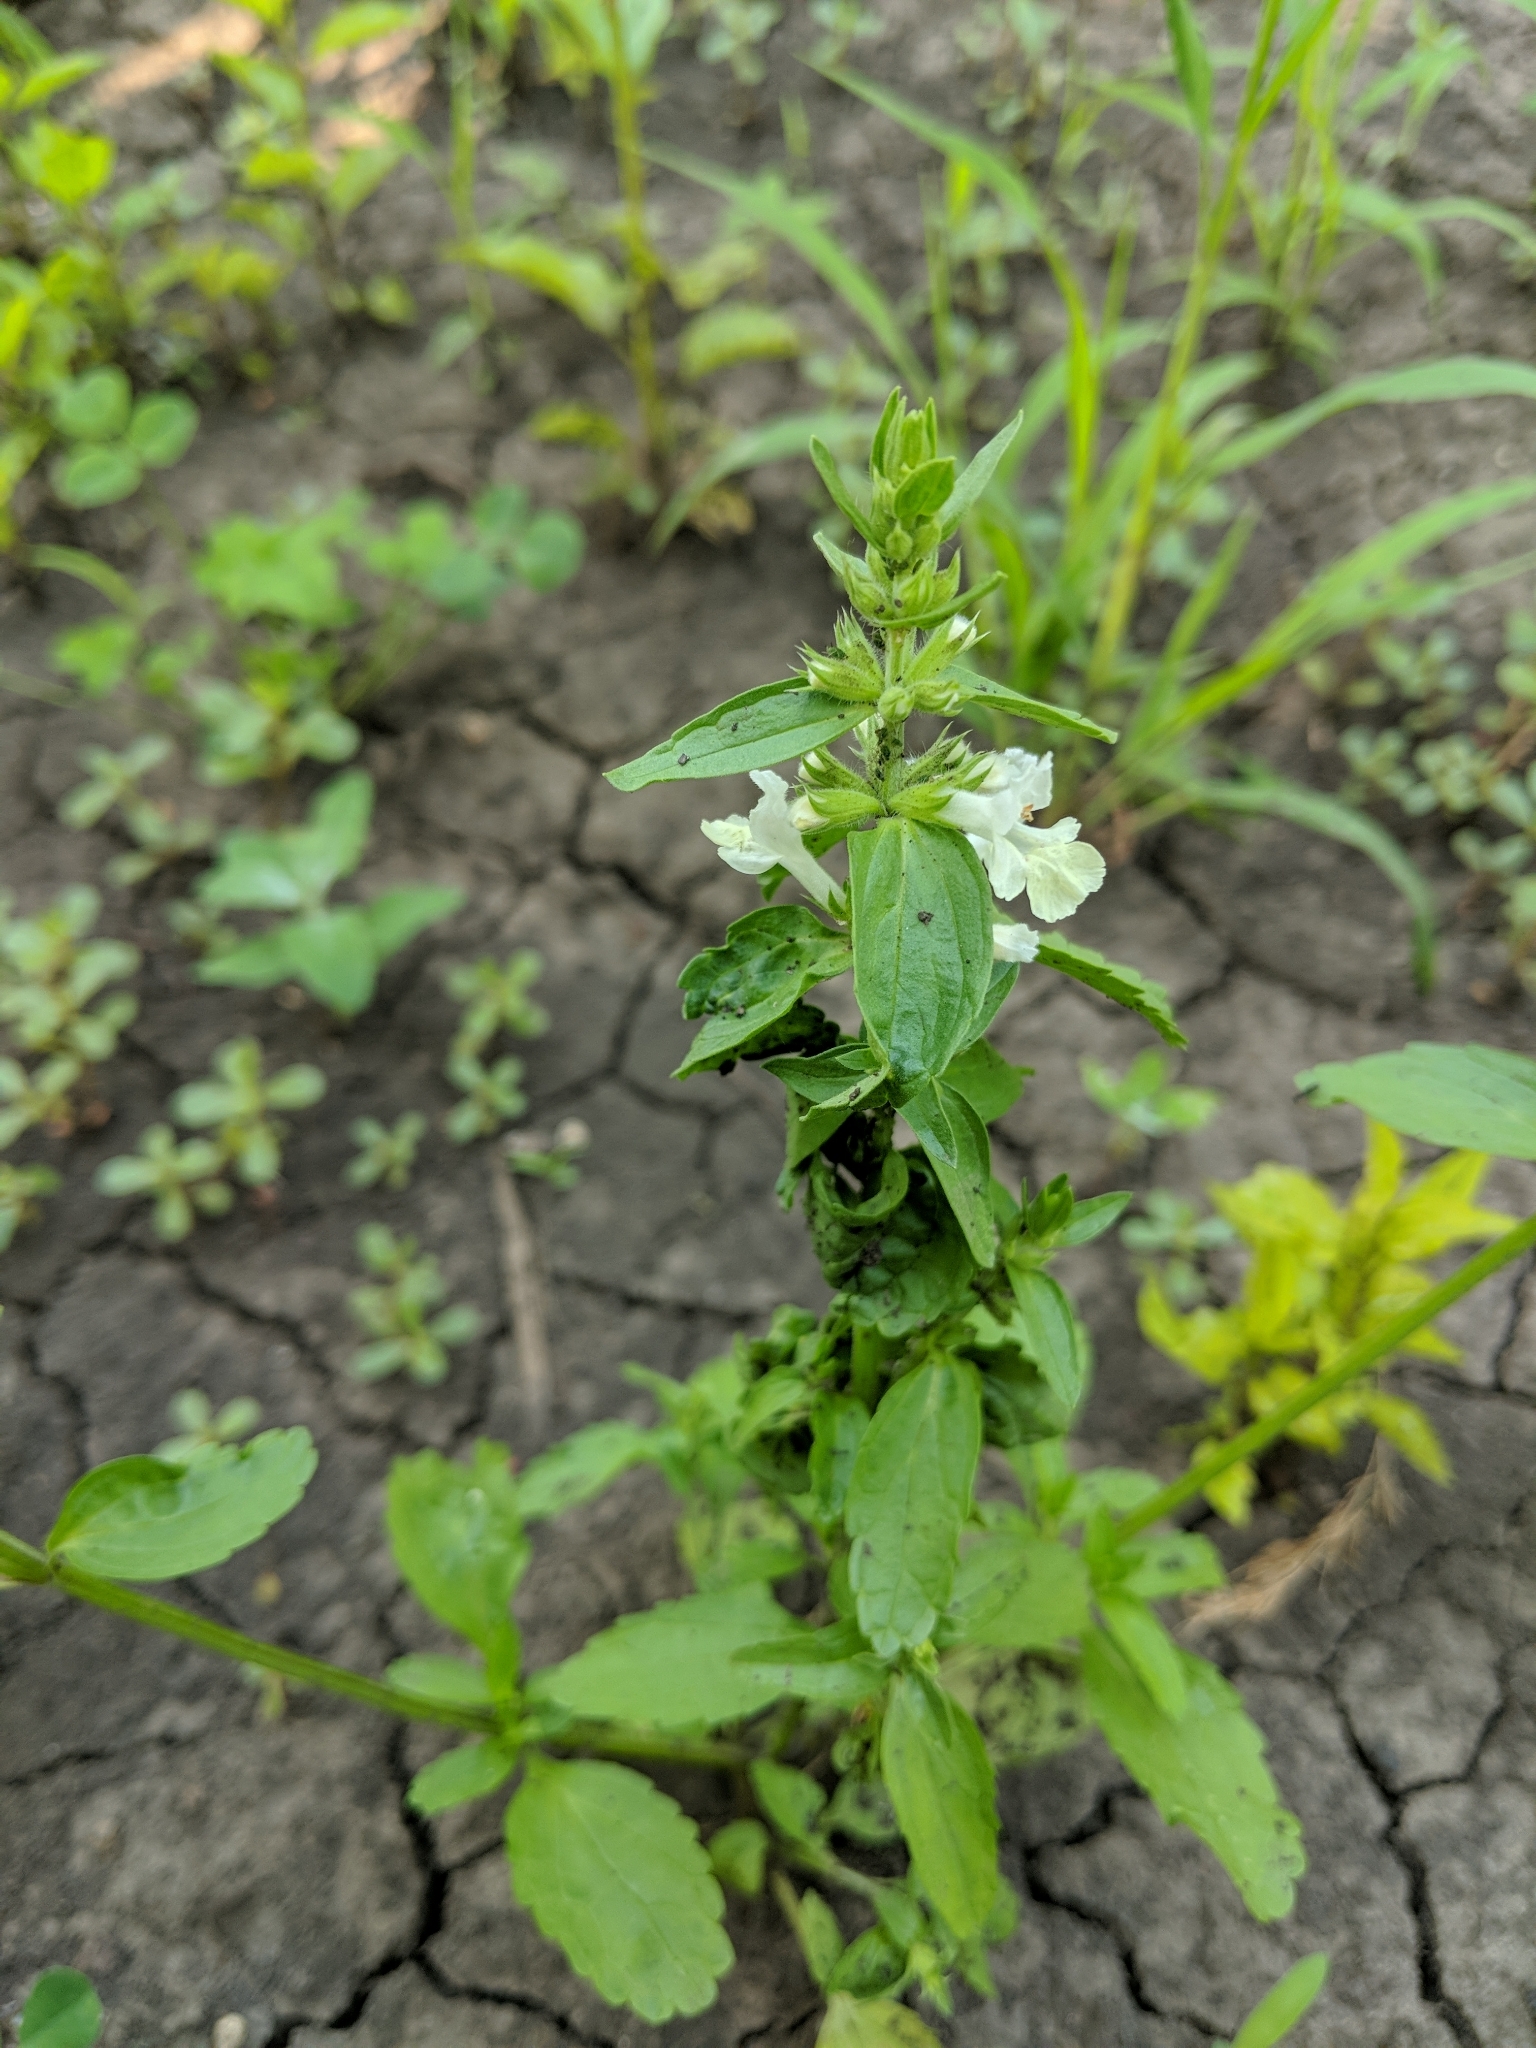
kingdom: Plantae
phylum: Tracheophyta
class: Magnoliopsida
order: Lamiales
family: Lamiaceae
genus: Stachys
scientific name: Stachys recta
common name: Perennial yellow-woundwort
